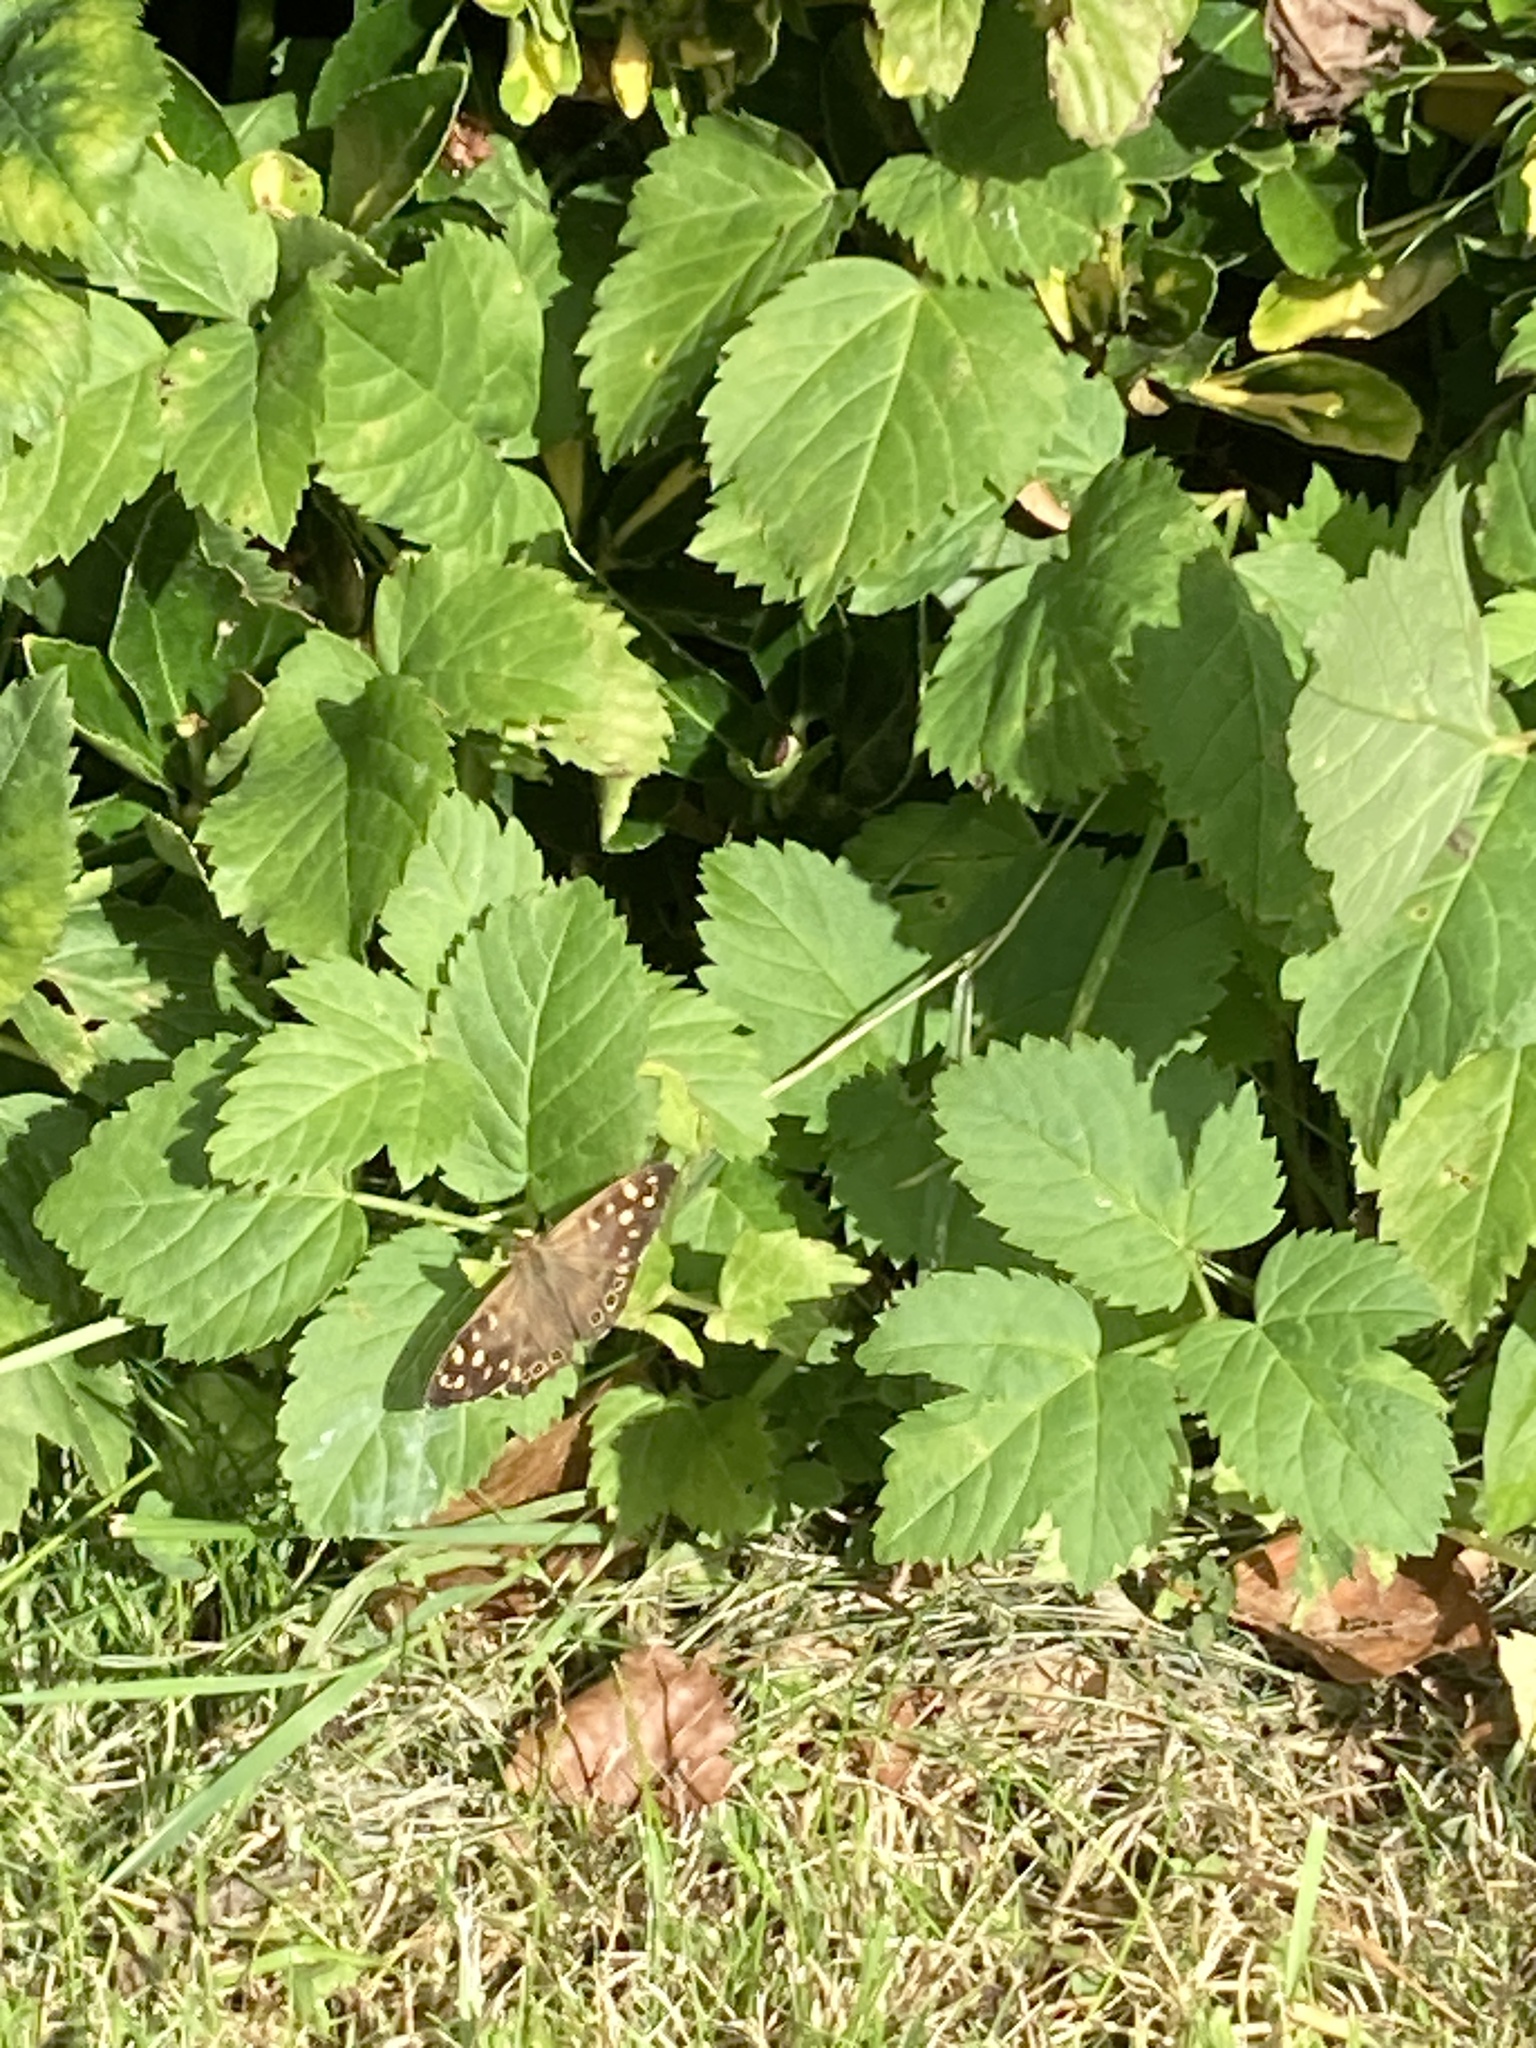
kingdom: Animalia
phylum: Arthropoda
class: Insecta
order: Lepidoptera
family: Nymphalidae
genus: Pararge
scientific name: Pararge aegeria
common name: Speckled wood
